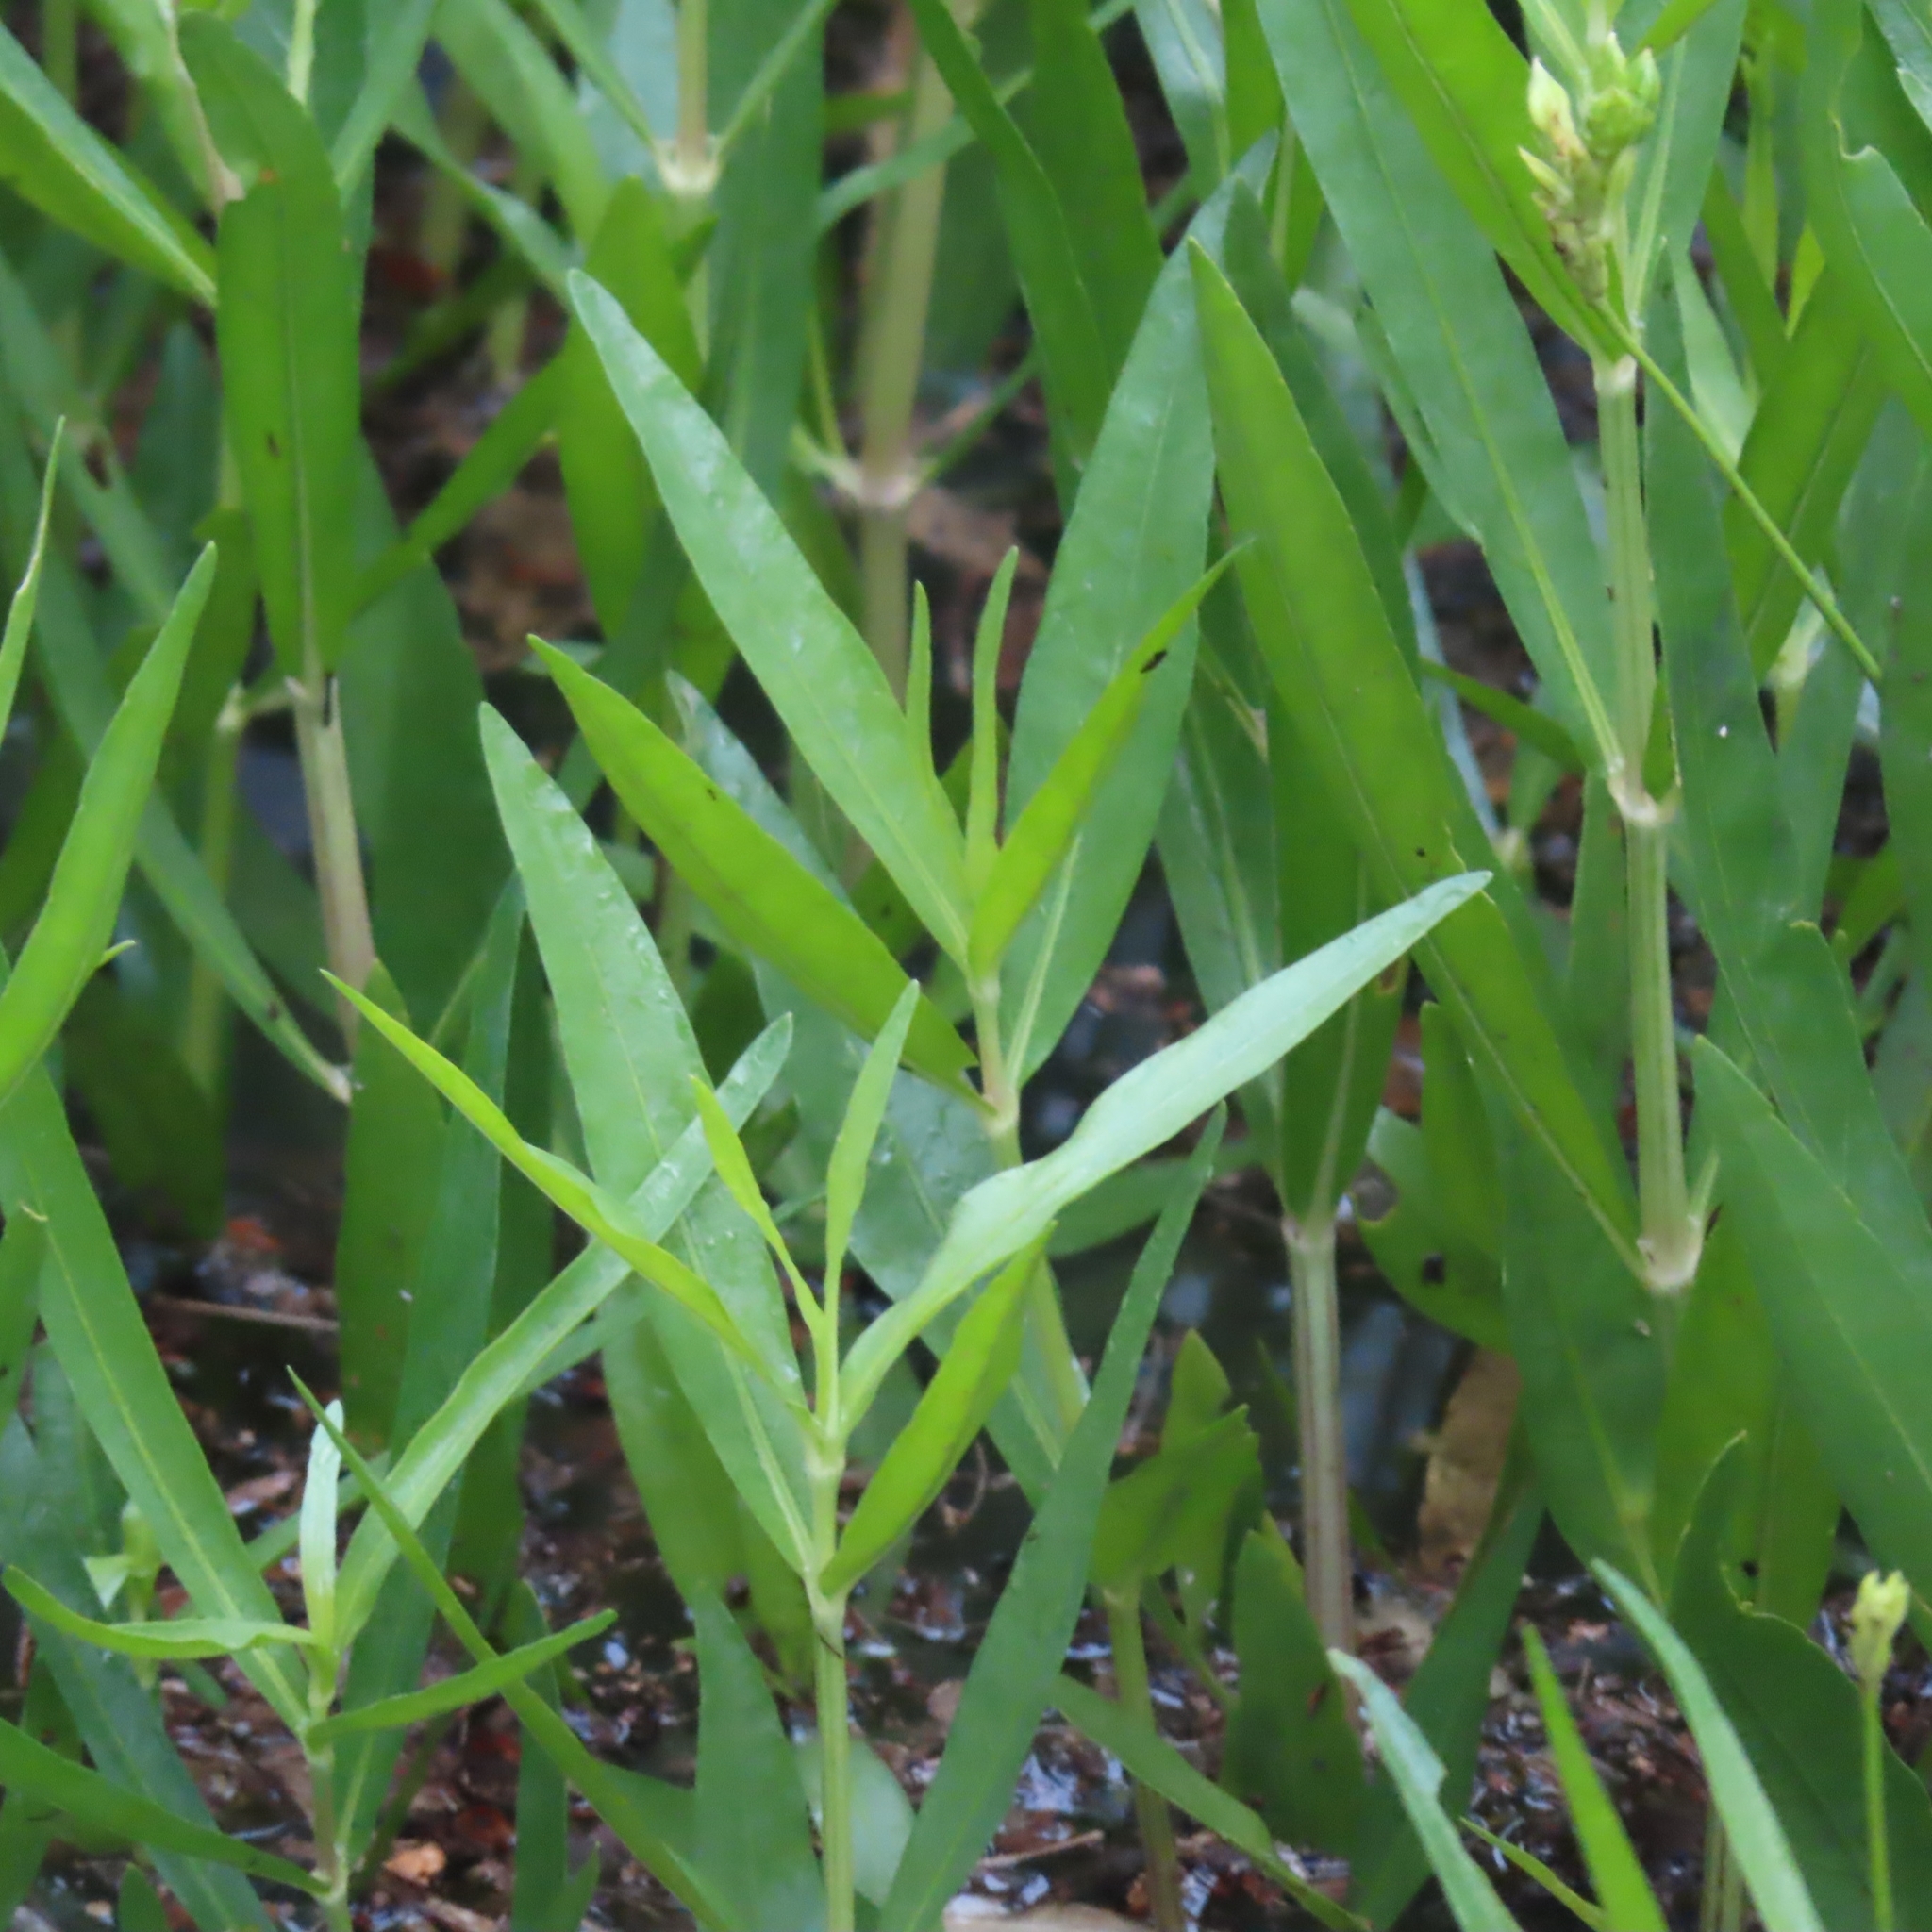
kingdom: Plantae
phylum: Tracheophyta
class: Magnoliopsida
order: Lamiales
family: Acanthaceae
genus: Dianthera
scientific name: Dianthera americana
